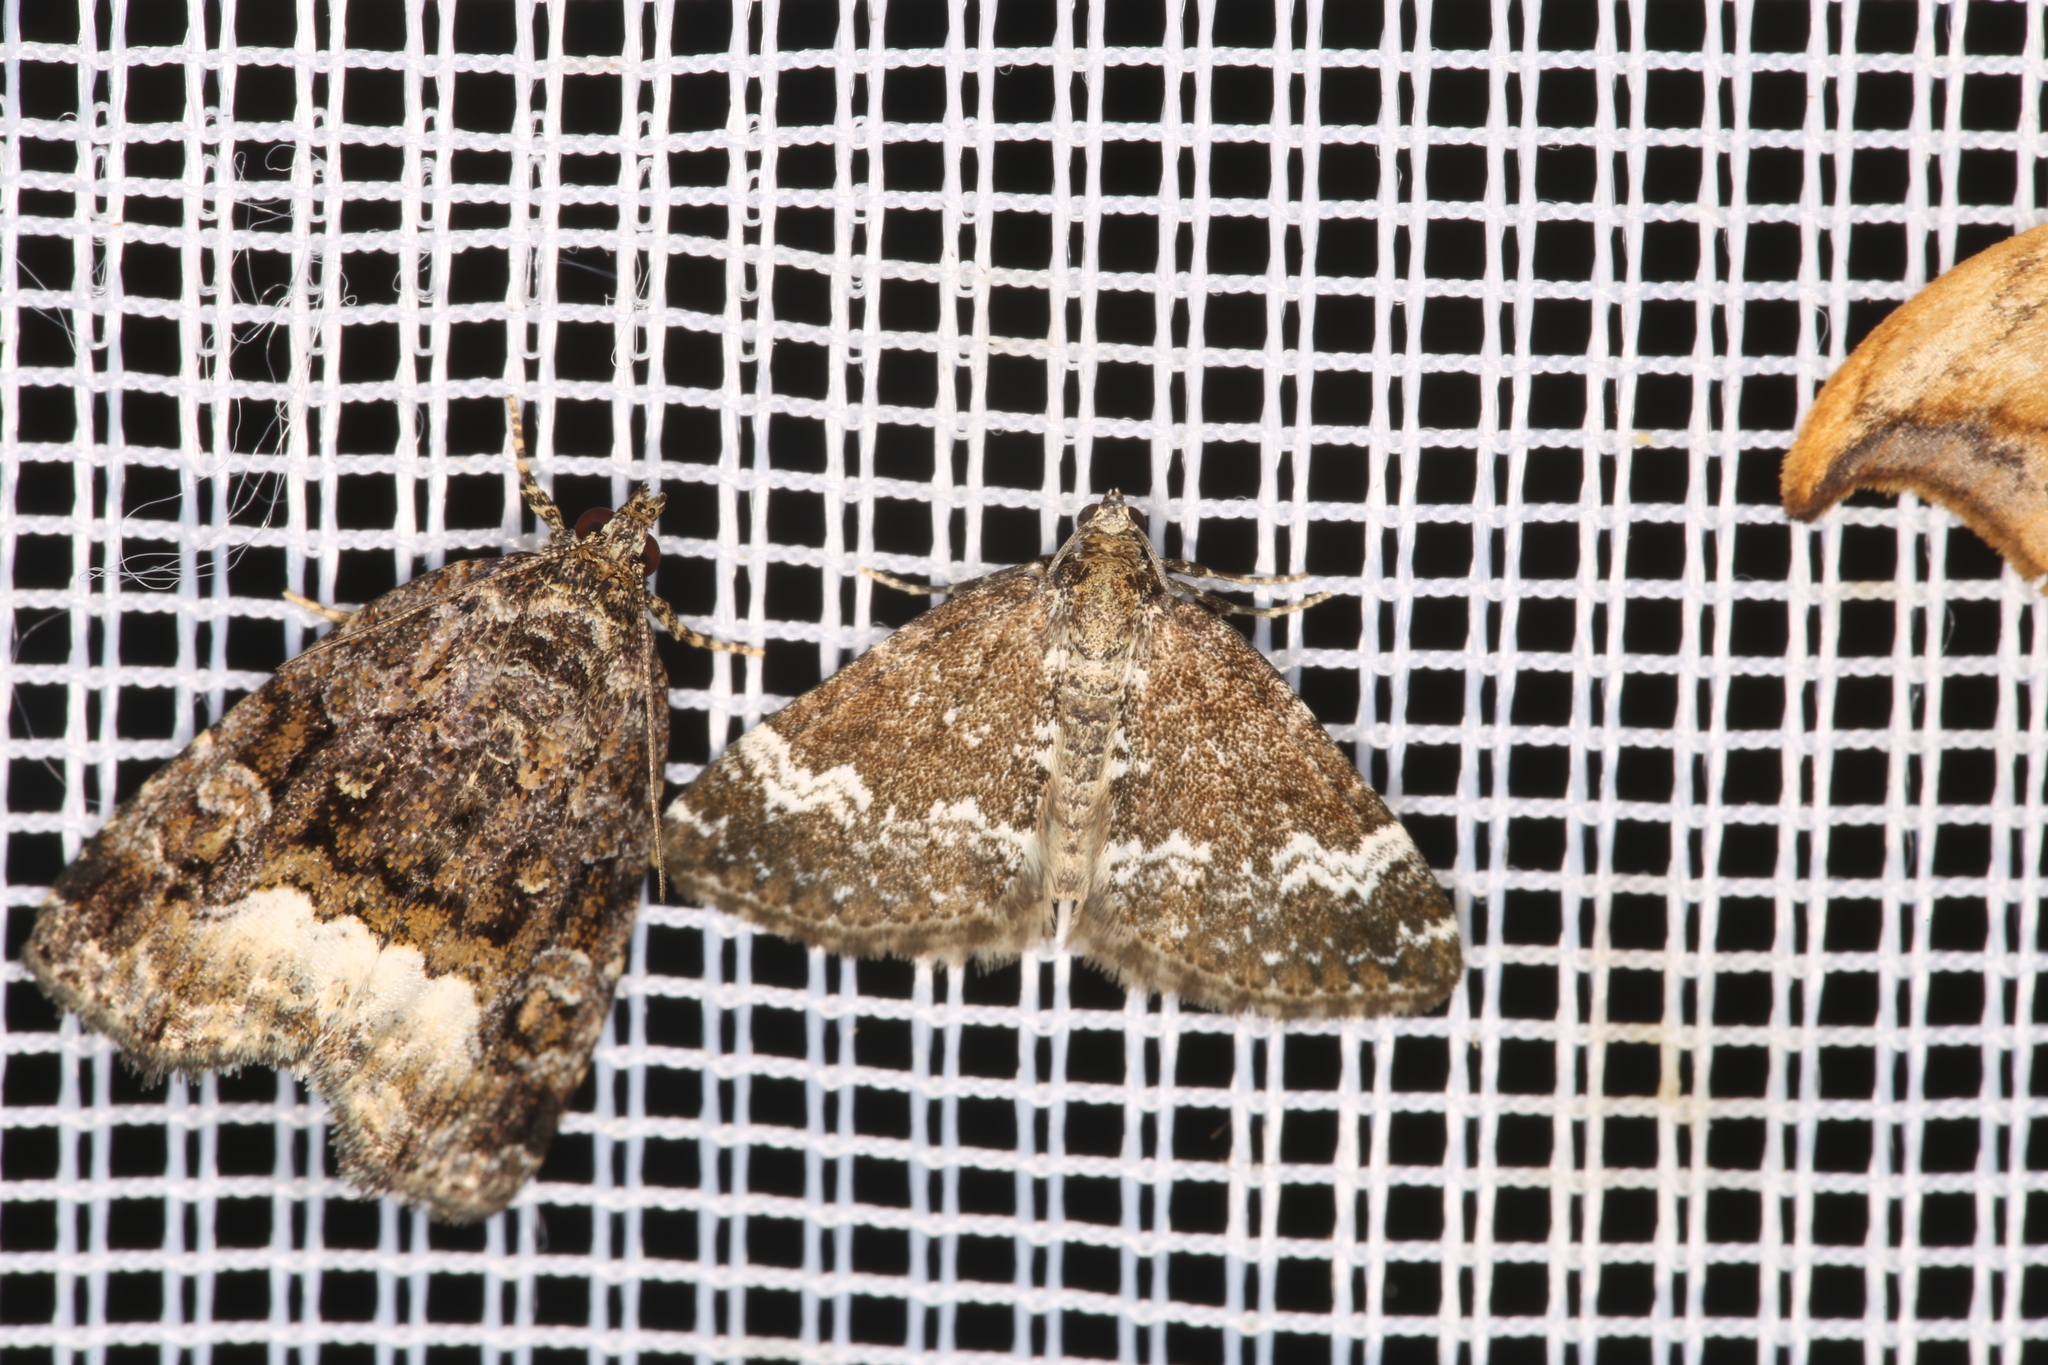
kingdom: Animalia
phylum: Arthropoda
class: Insecta
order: Lepidoptera
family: Geometridae
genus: Perizoma
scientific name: Perizoma alchemillata
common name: Small rivulet
